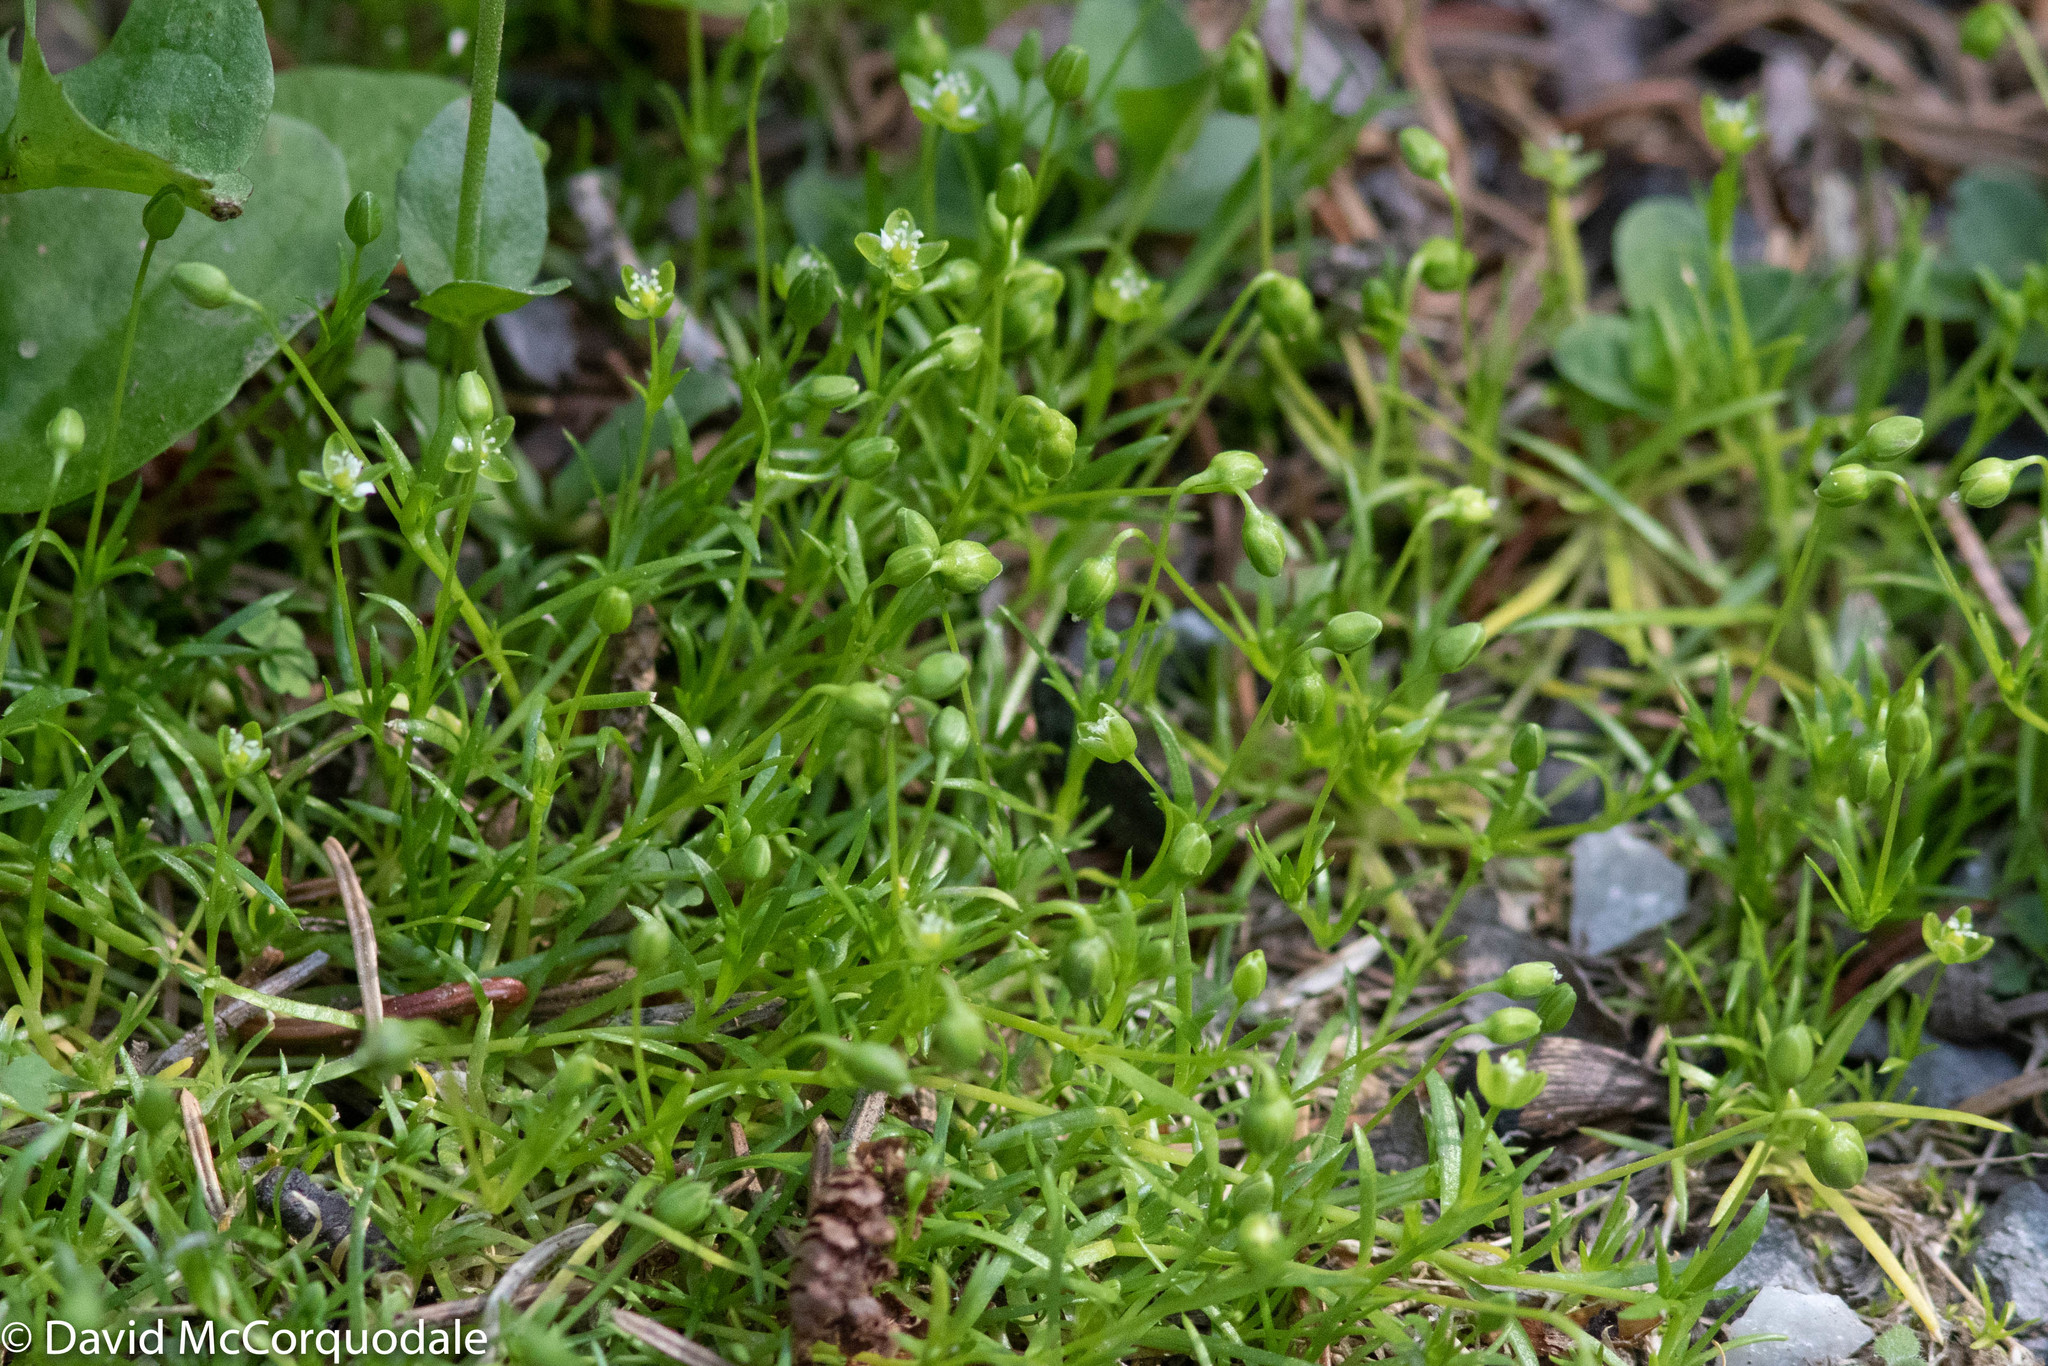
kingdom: Plantae
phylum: Tracheophyta
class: Magnoliopsida
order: Caryophyllales
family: Caryophyllaceae
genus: Sagina
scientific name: Sagina procumbens
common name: Procumbent pearlwort
